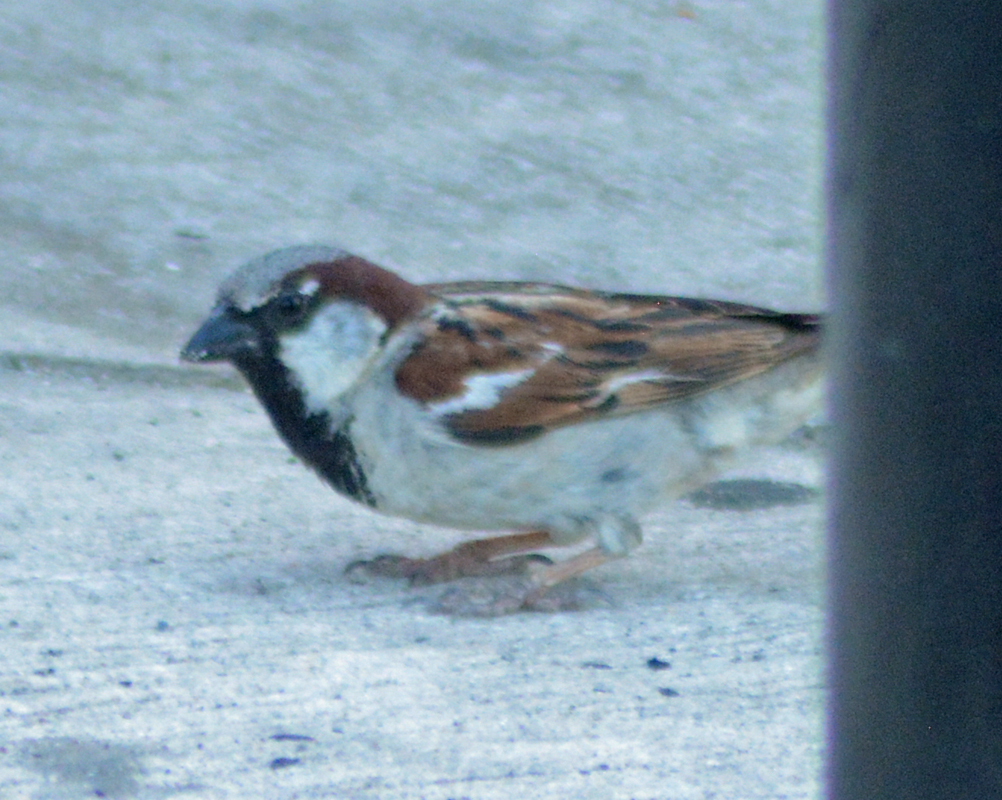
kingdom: Animalia
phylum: Chordata
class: Aves
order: Passeriformes
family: Passeridae
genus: Passer
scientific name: Passer domesticus
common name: House sparrow
